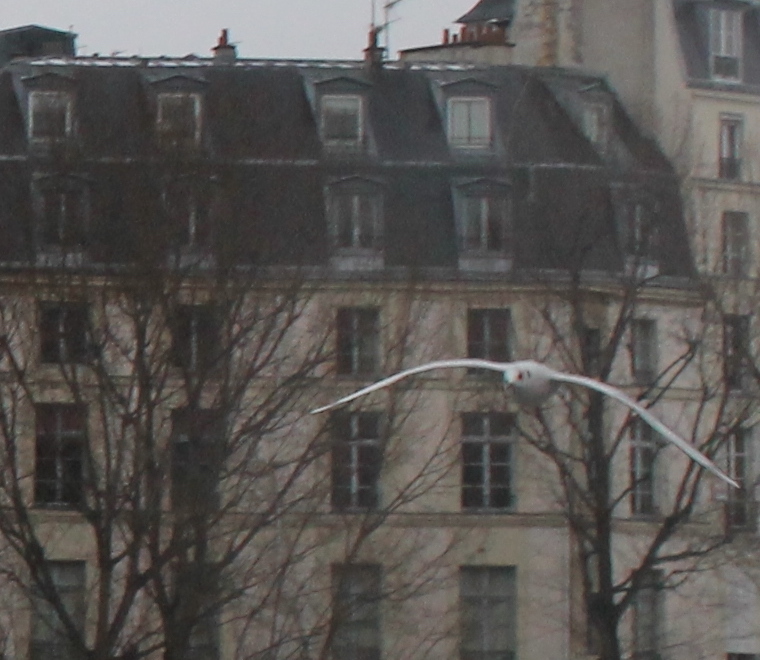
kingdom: Animalia
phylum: Chordata
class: Aves
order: Charadriiformes
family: Laridae
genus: Chroicocephalus
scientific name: Chroicocephalus ridibundus
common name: Black-headed gull
